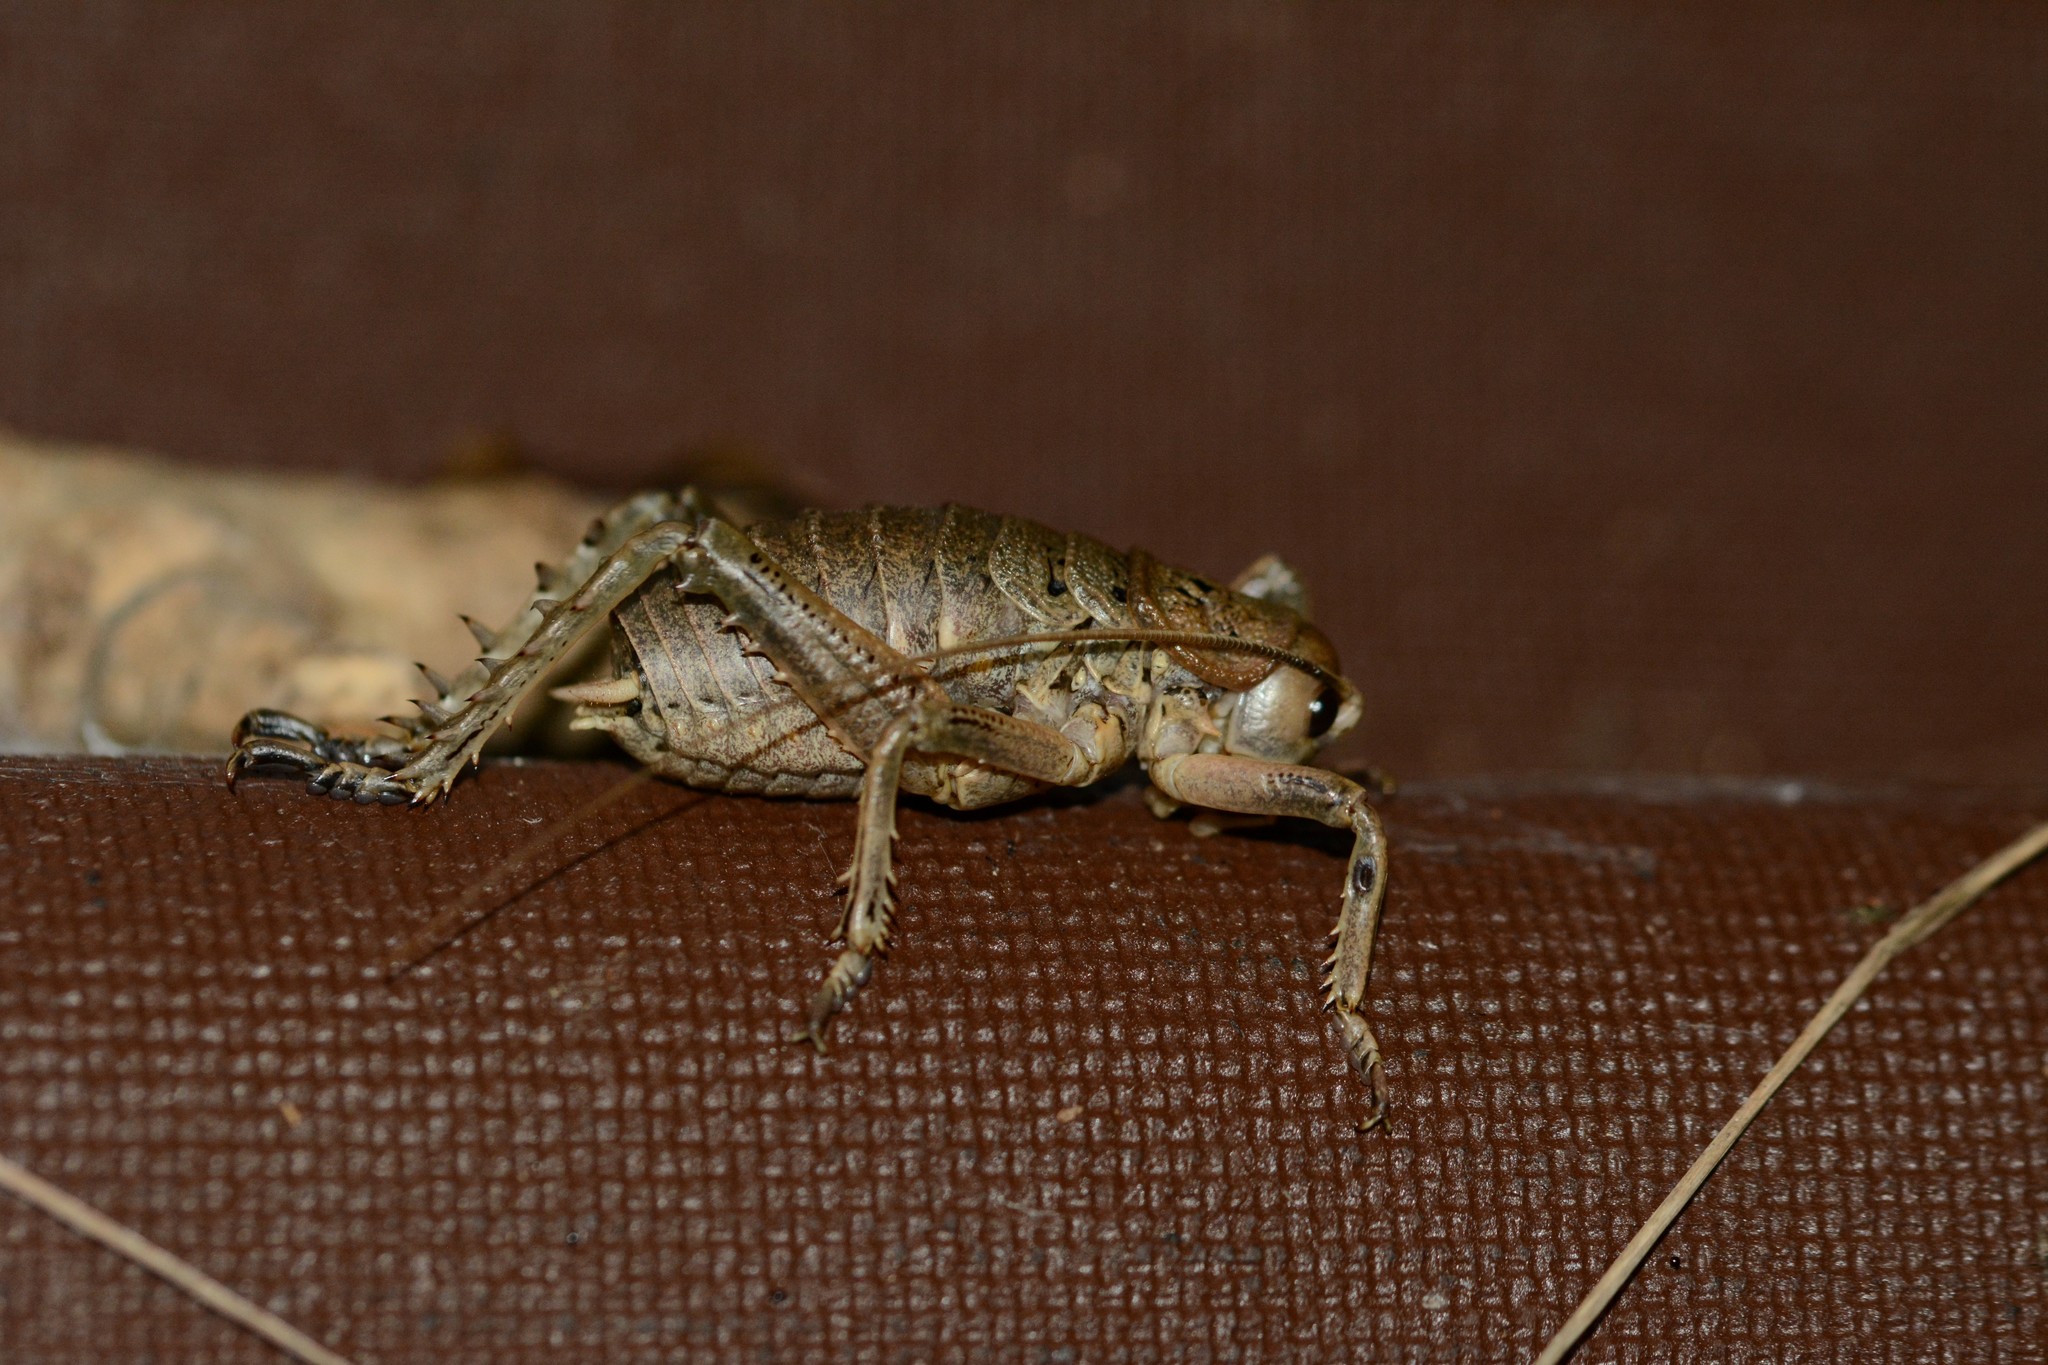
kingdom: Animalia
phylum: Arthropoda
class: Insecta
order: Orthoptera
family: Anostostomatidae
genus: Deinacrida
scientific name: Deinacrida rugosa
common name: Stephens island weta
